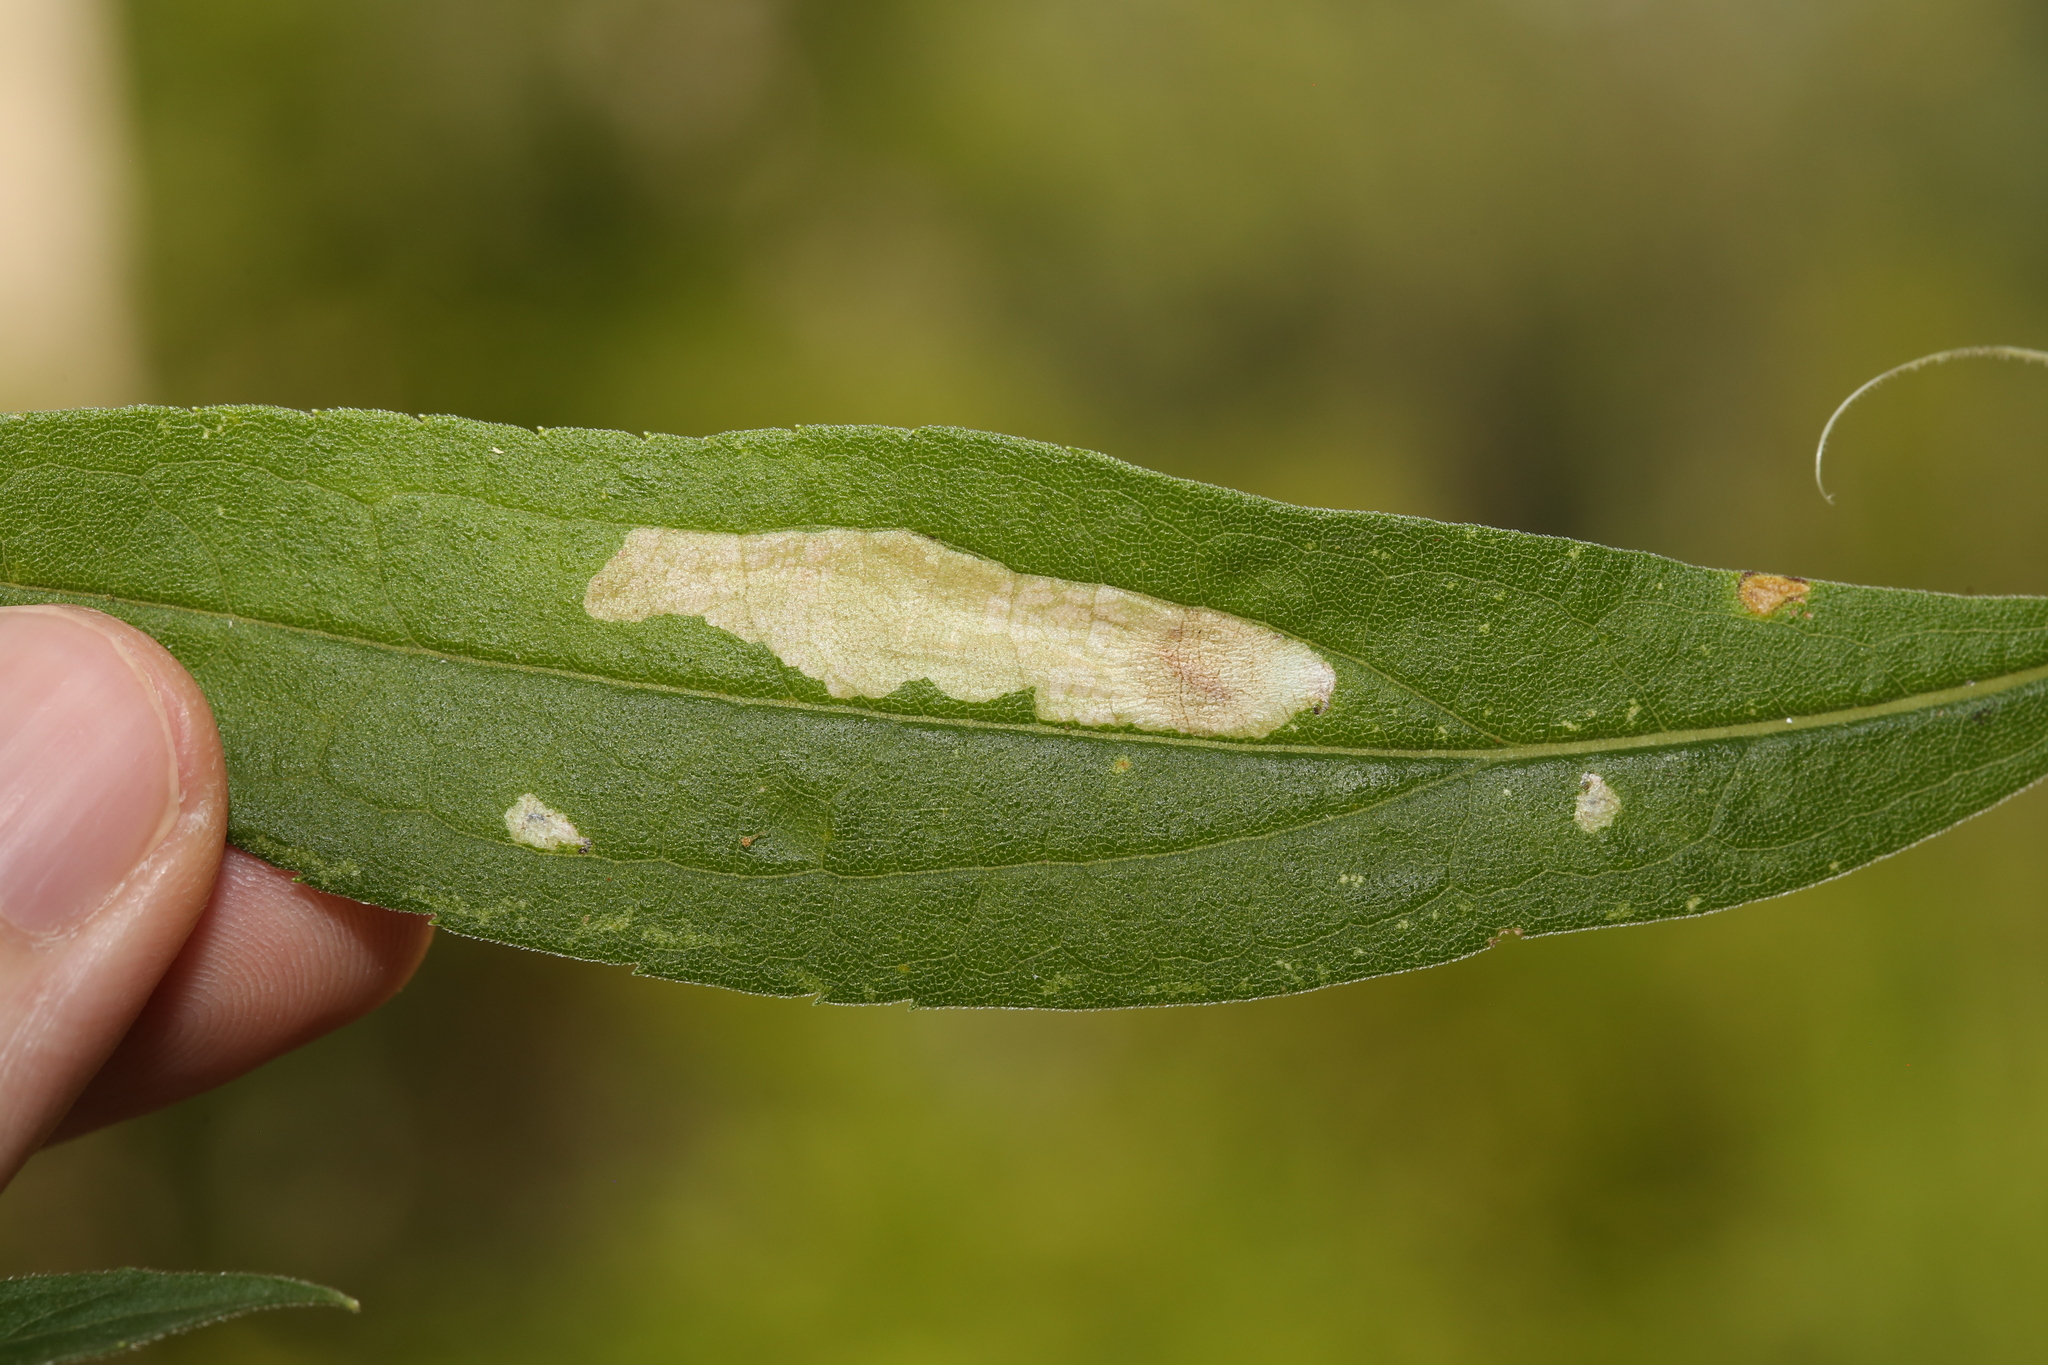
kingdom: Animalia
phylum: Arthropoda
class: Insecta
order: Lepidoptera
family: Tischeriidae
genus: Astrotischeria
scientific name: Astrotischeria solidagonifoliella
